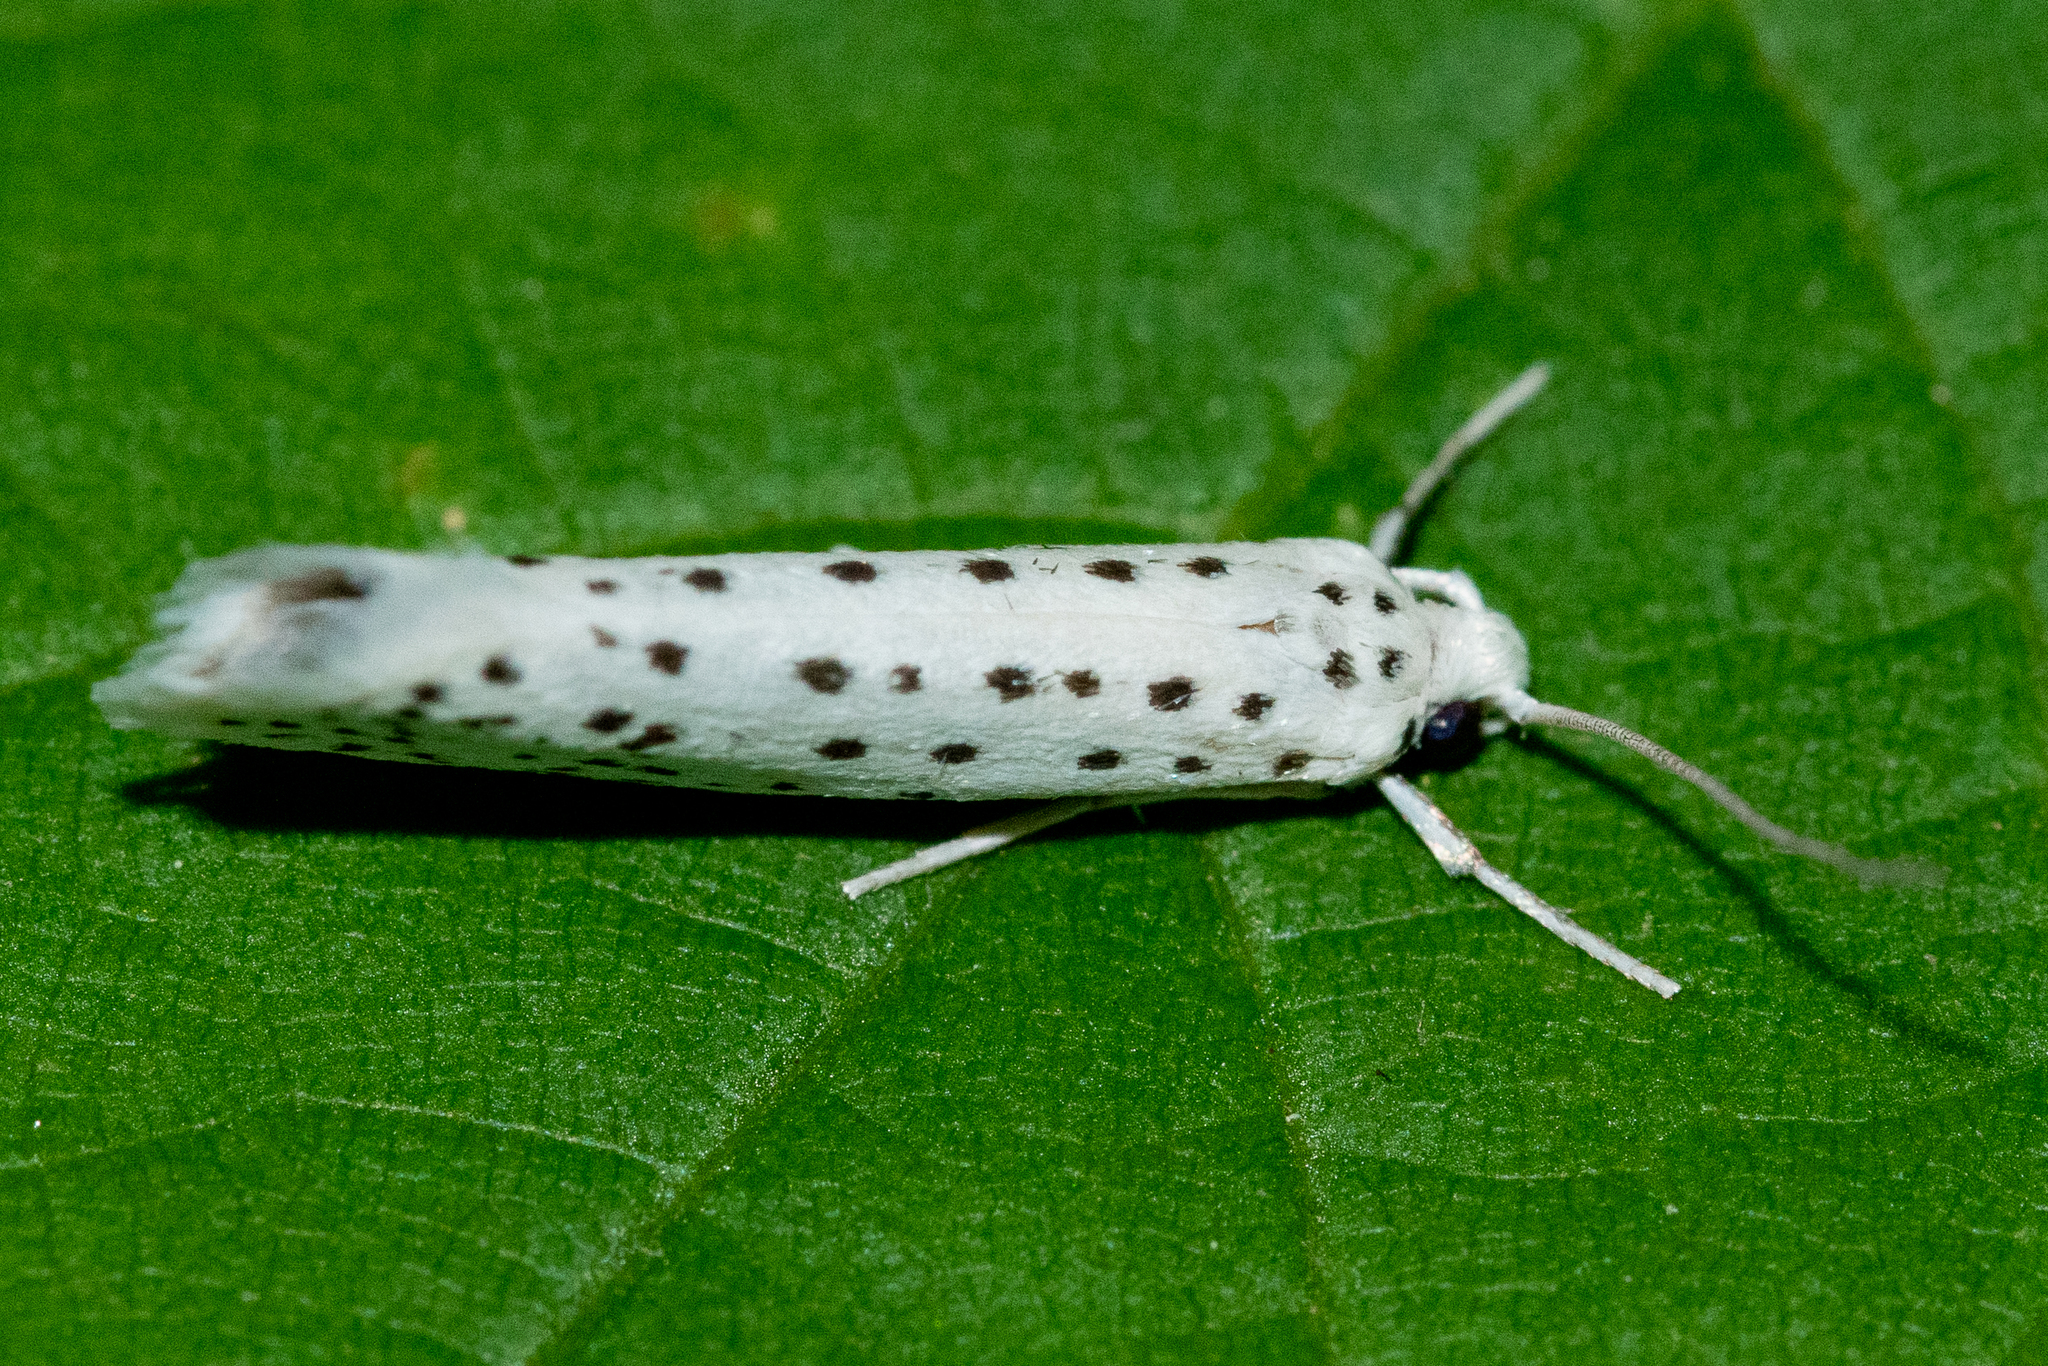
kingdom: Animalia
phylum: Arthropoda
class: Insecta
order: Lepidoptera
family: Yponomeutidae
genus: Yponomeuta
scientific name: Yponomeuta multipunctella
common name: American ermine moth
